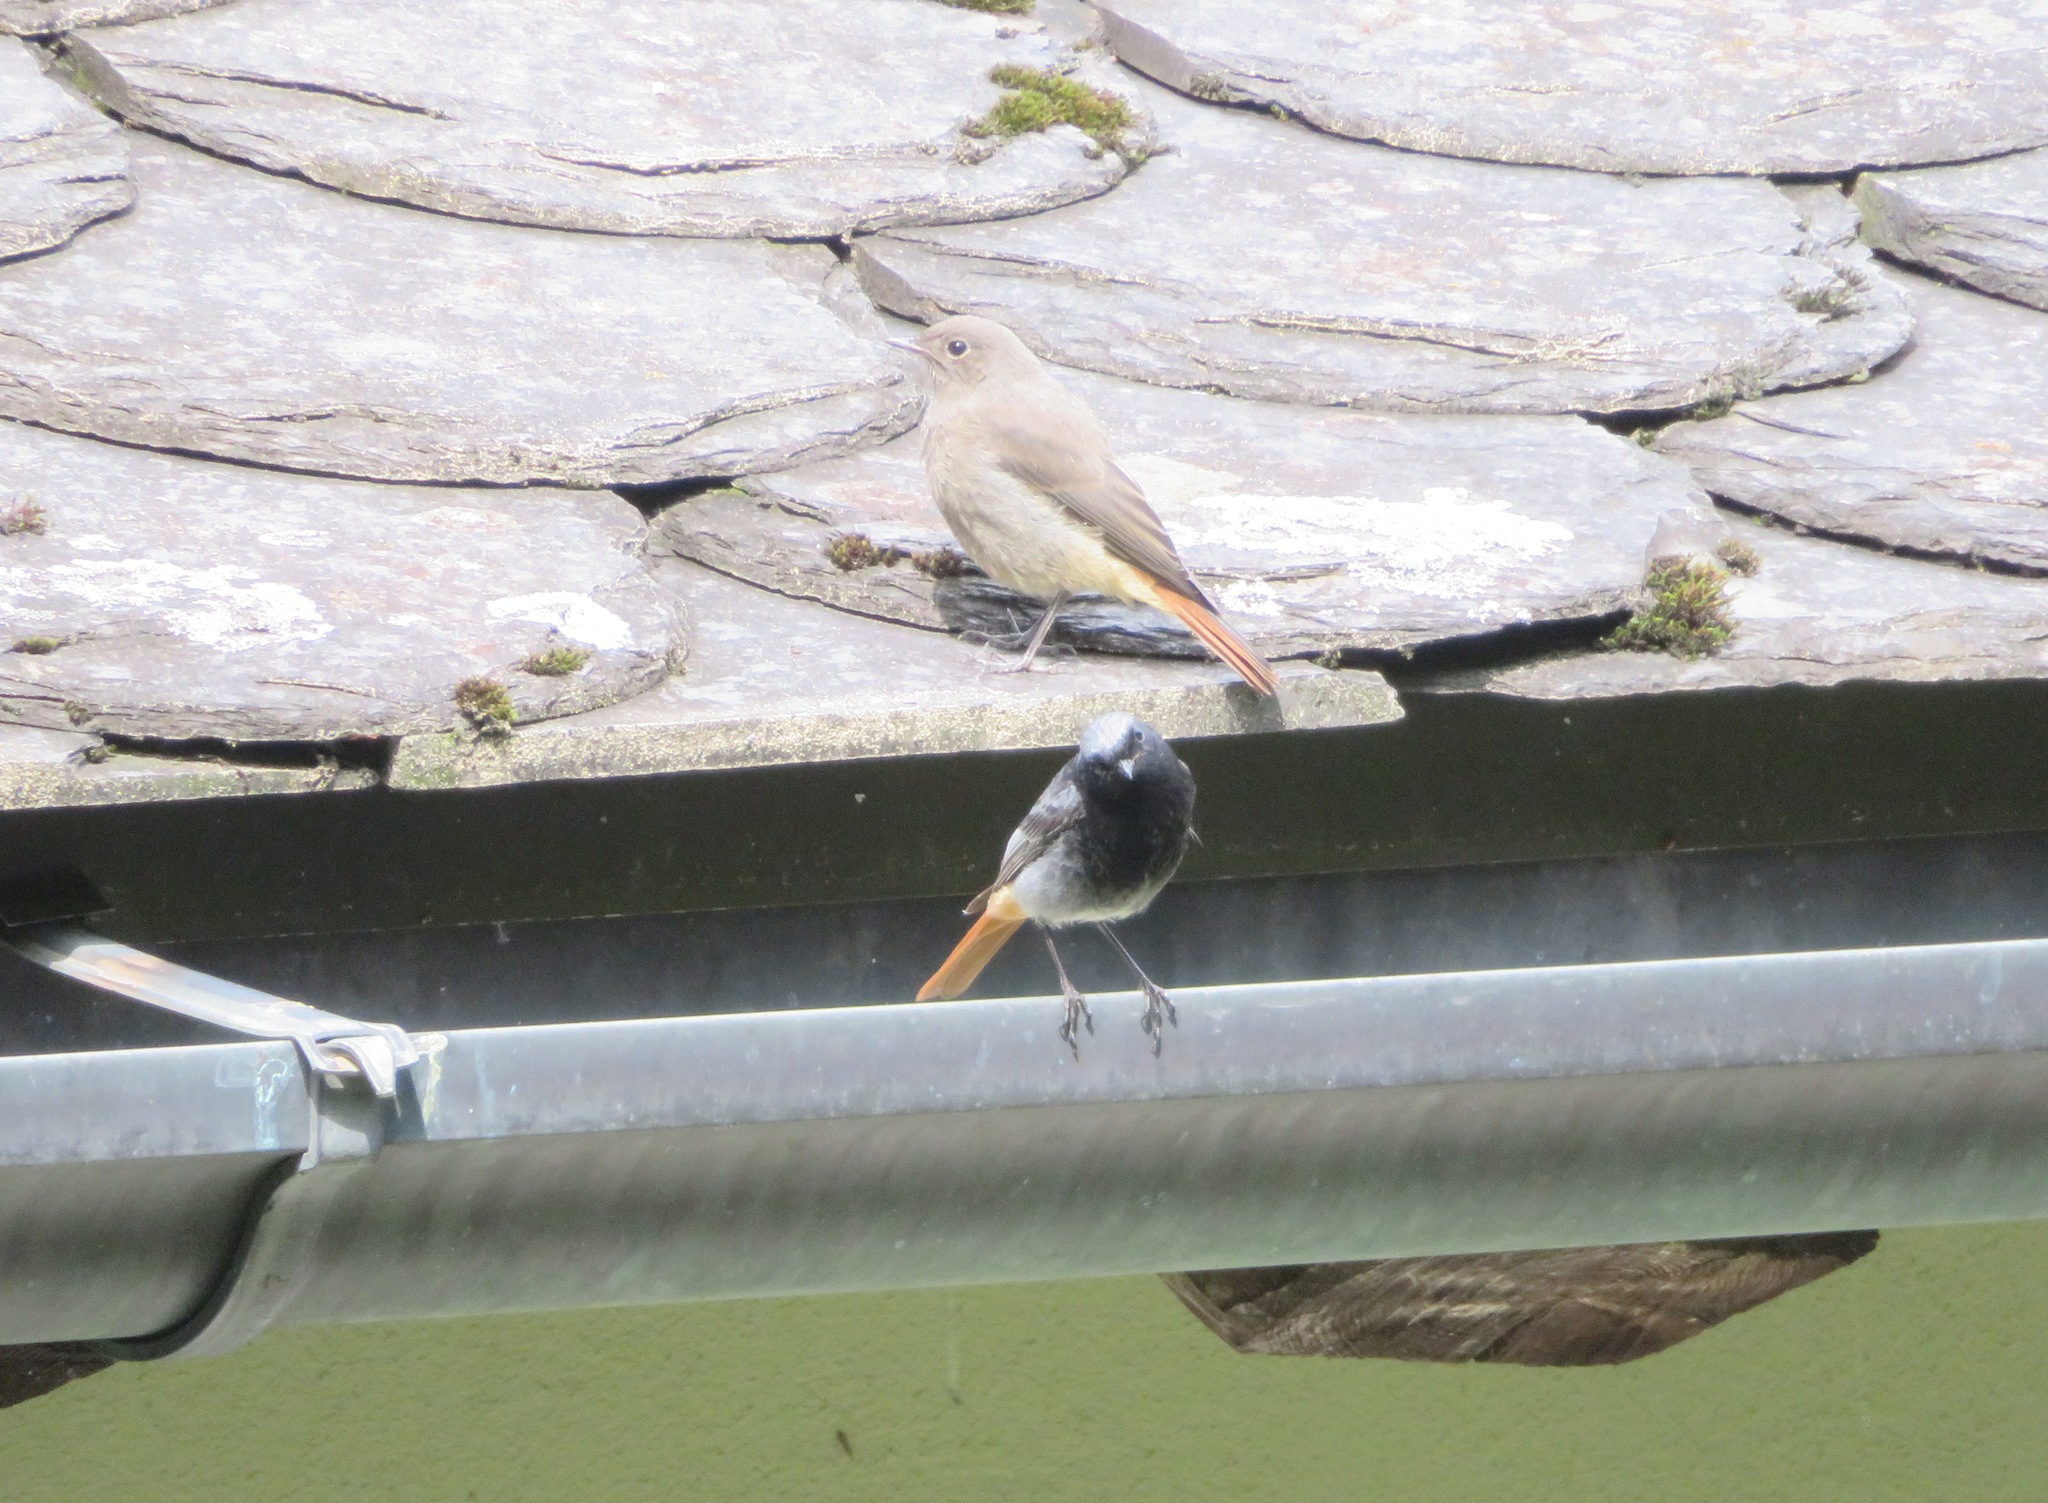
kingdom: Animalia
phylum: Chordata
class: Aves
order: Passeriformes
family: Muscicapidae
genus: Phoenicurus
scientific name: Phoenicurus ochruros
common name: Black redstart
